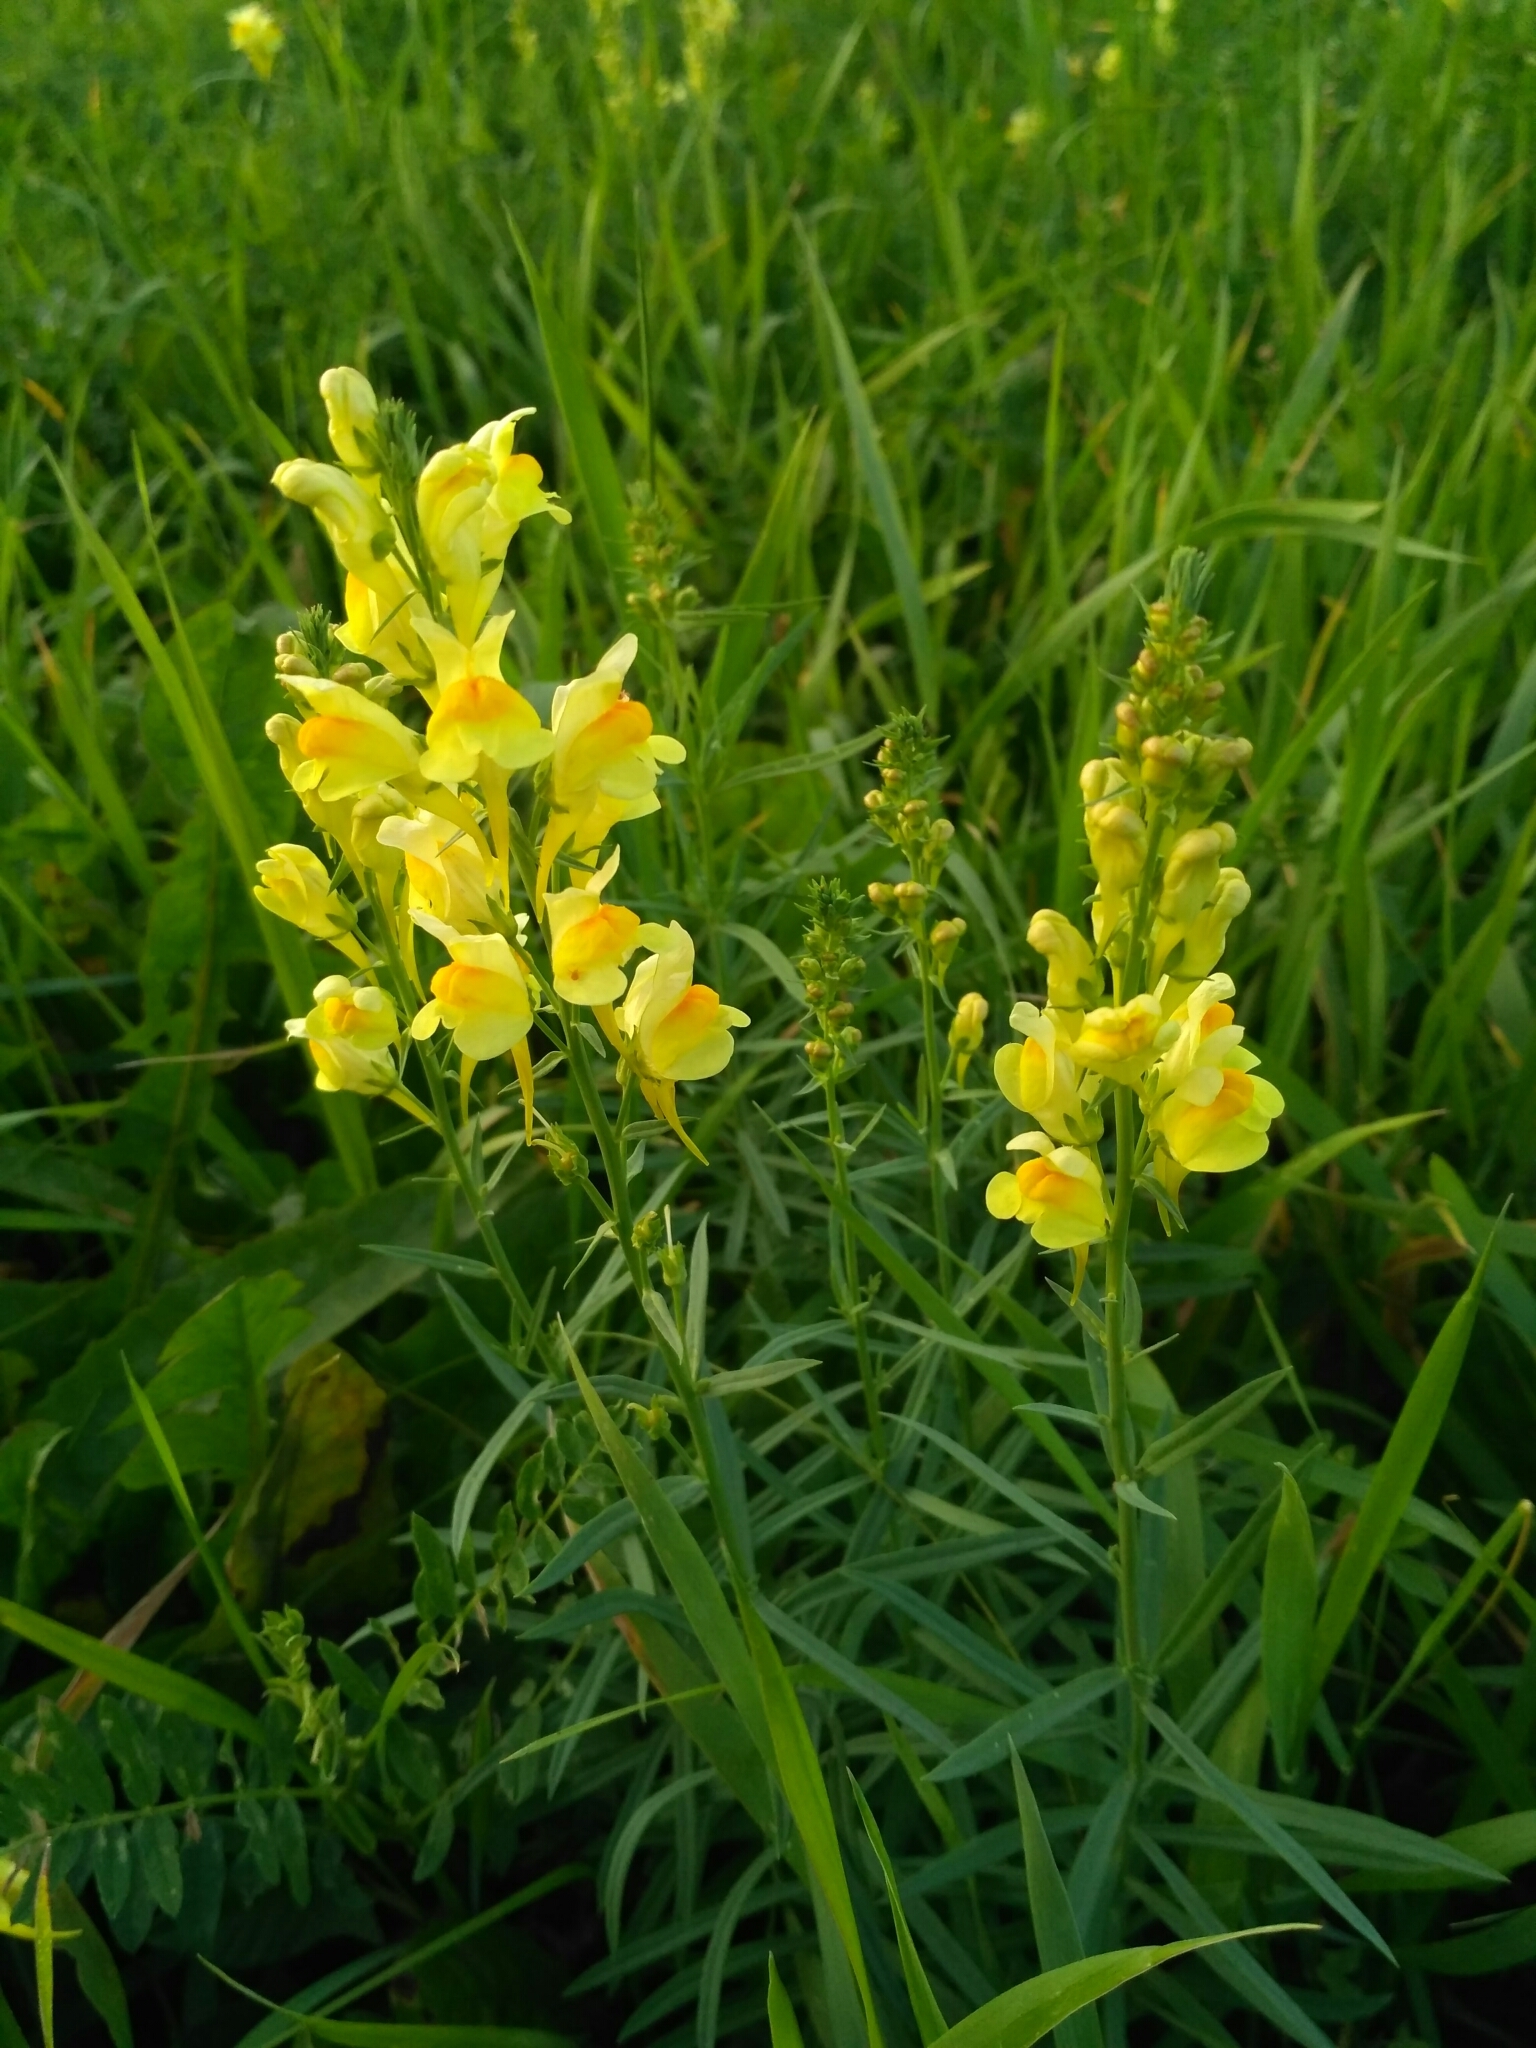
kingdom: Plantae
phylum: Tracheophyta
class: Magnoliopsida
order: Lamiales
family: Plantaginaceae
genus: Linaria
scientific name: Linaria vulgaris
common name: Butter and eggs
